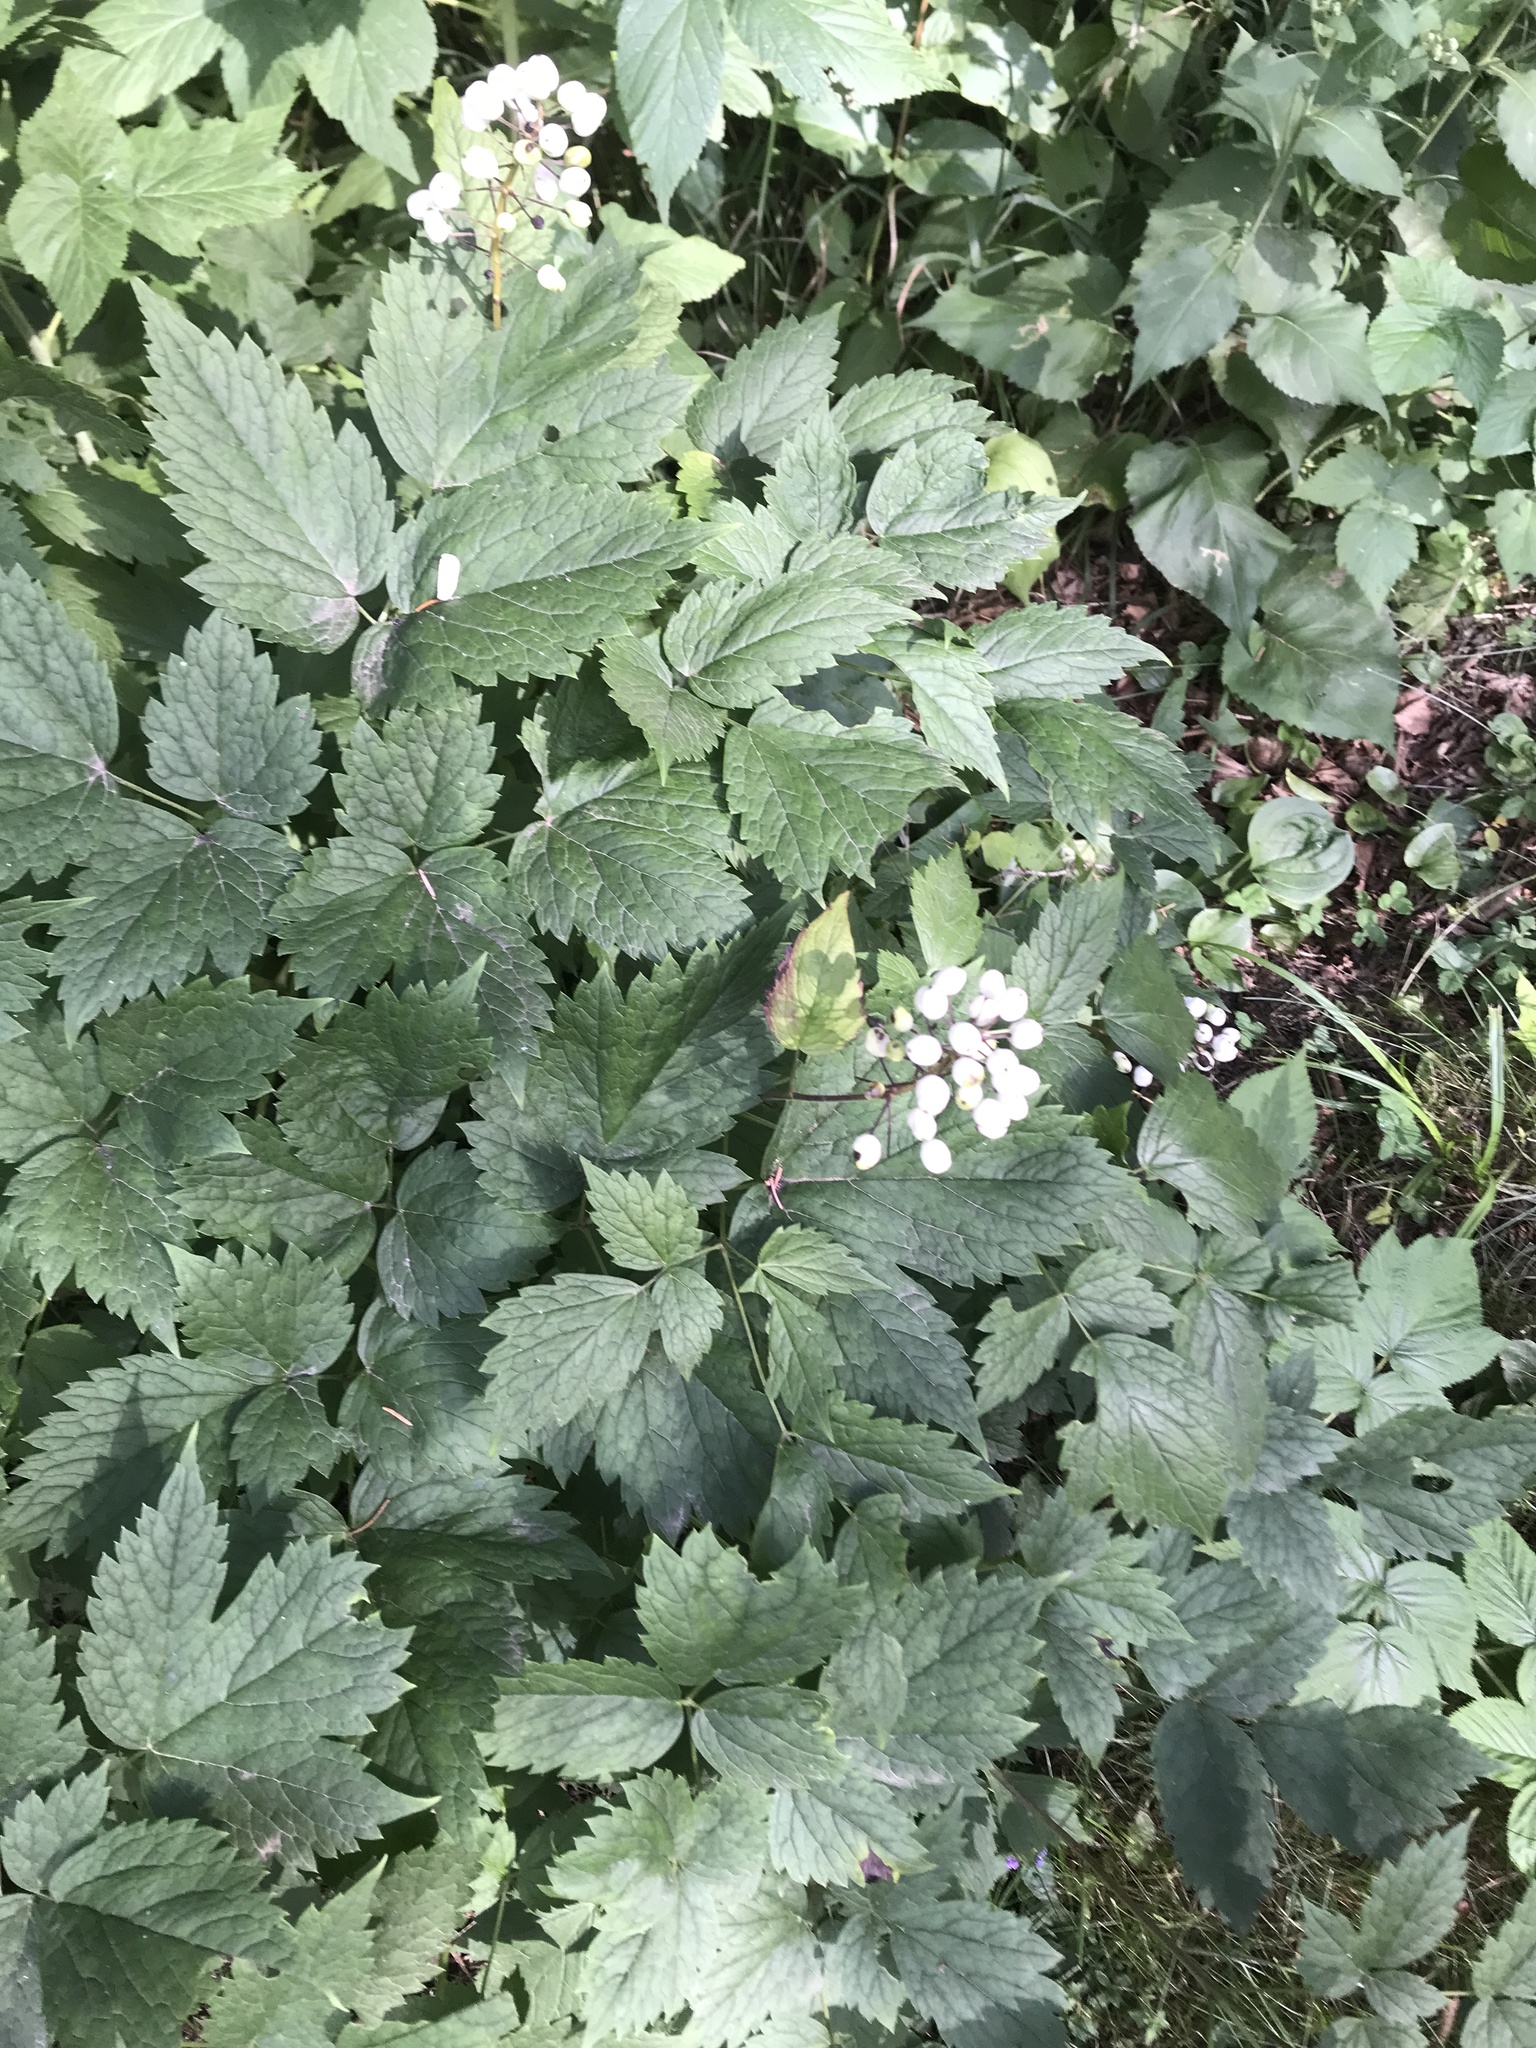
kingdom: Plantae
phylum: Tracheophyta
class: Magnoliopsida
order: Ranunculales
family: Ranunculaceae
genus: Actaea
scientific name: Actaea rubra
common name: Red baneberry
